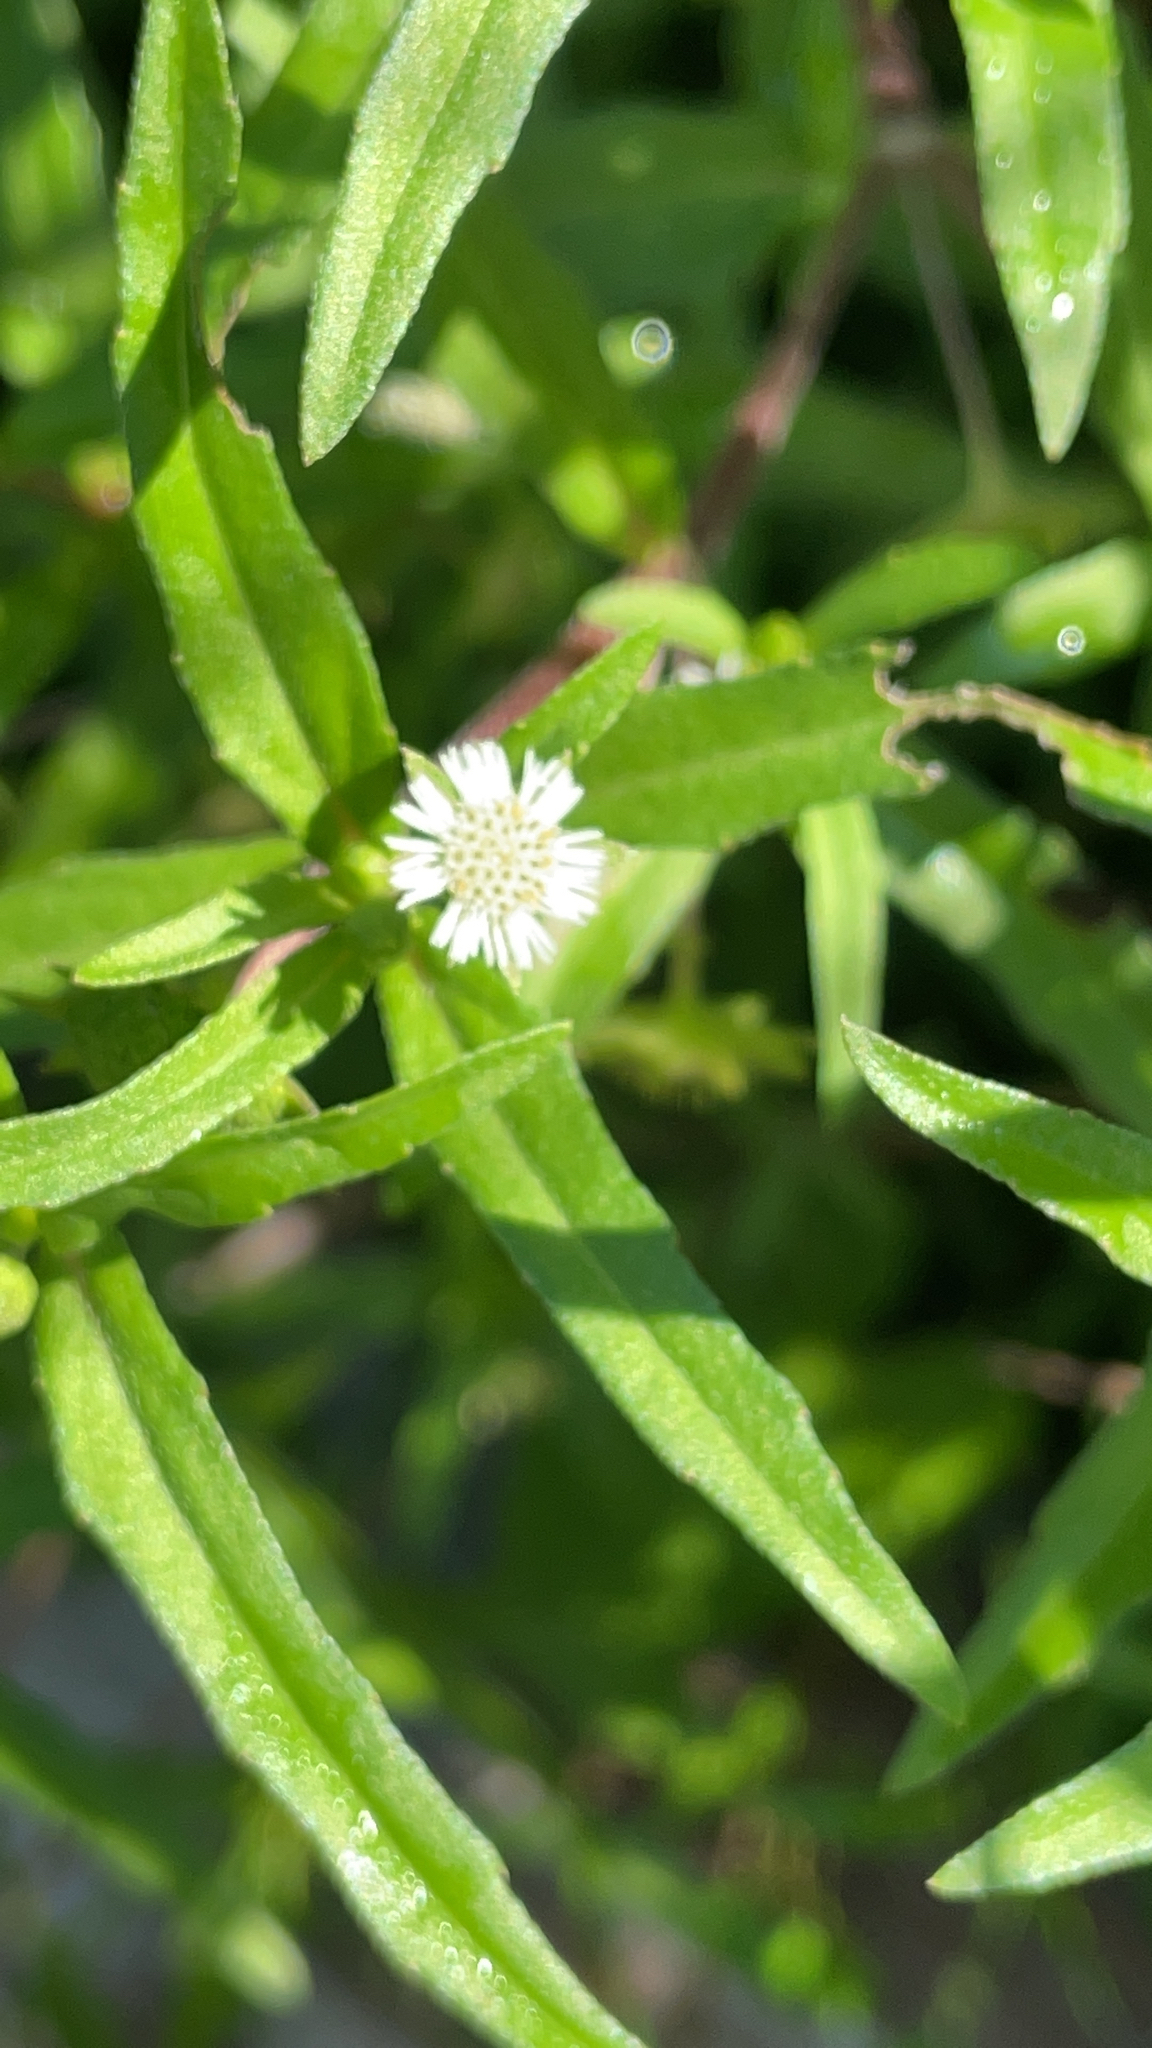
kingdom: Plantae
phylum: Tracheophyta
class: Magnoliopsida
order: Asterales
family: Asteraceae
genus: Eclipta
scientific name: Eclipta prostrata
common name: False daisy
